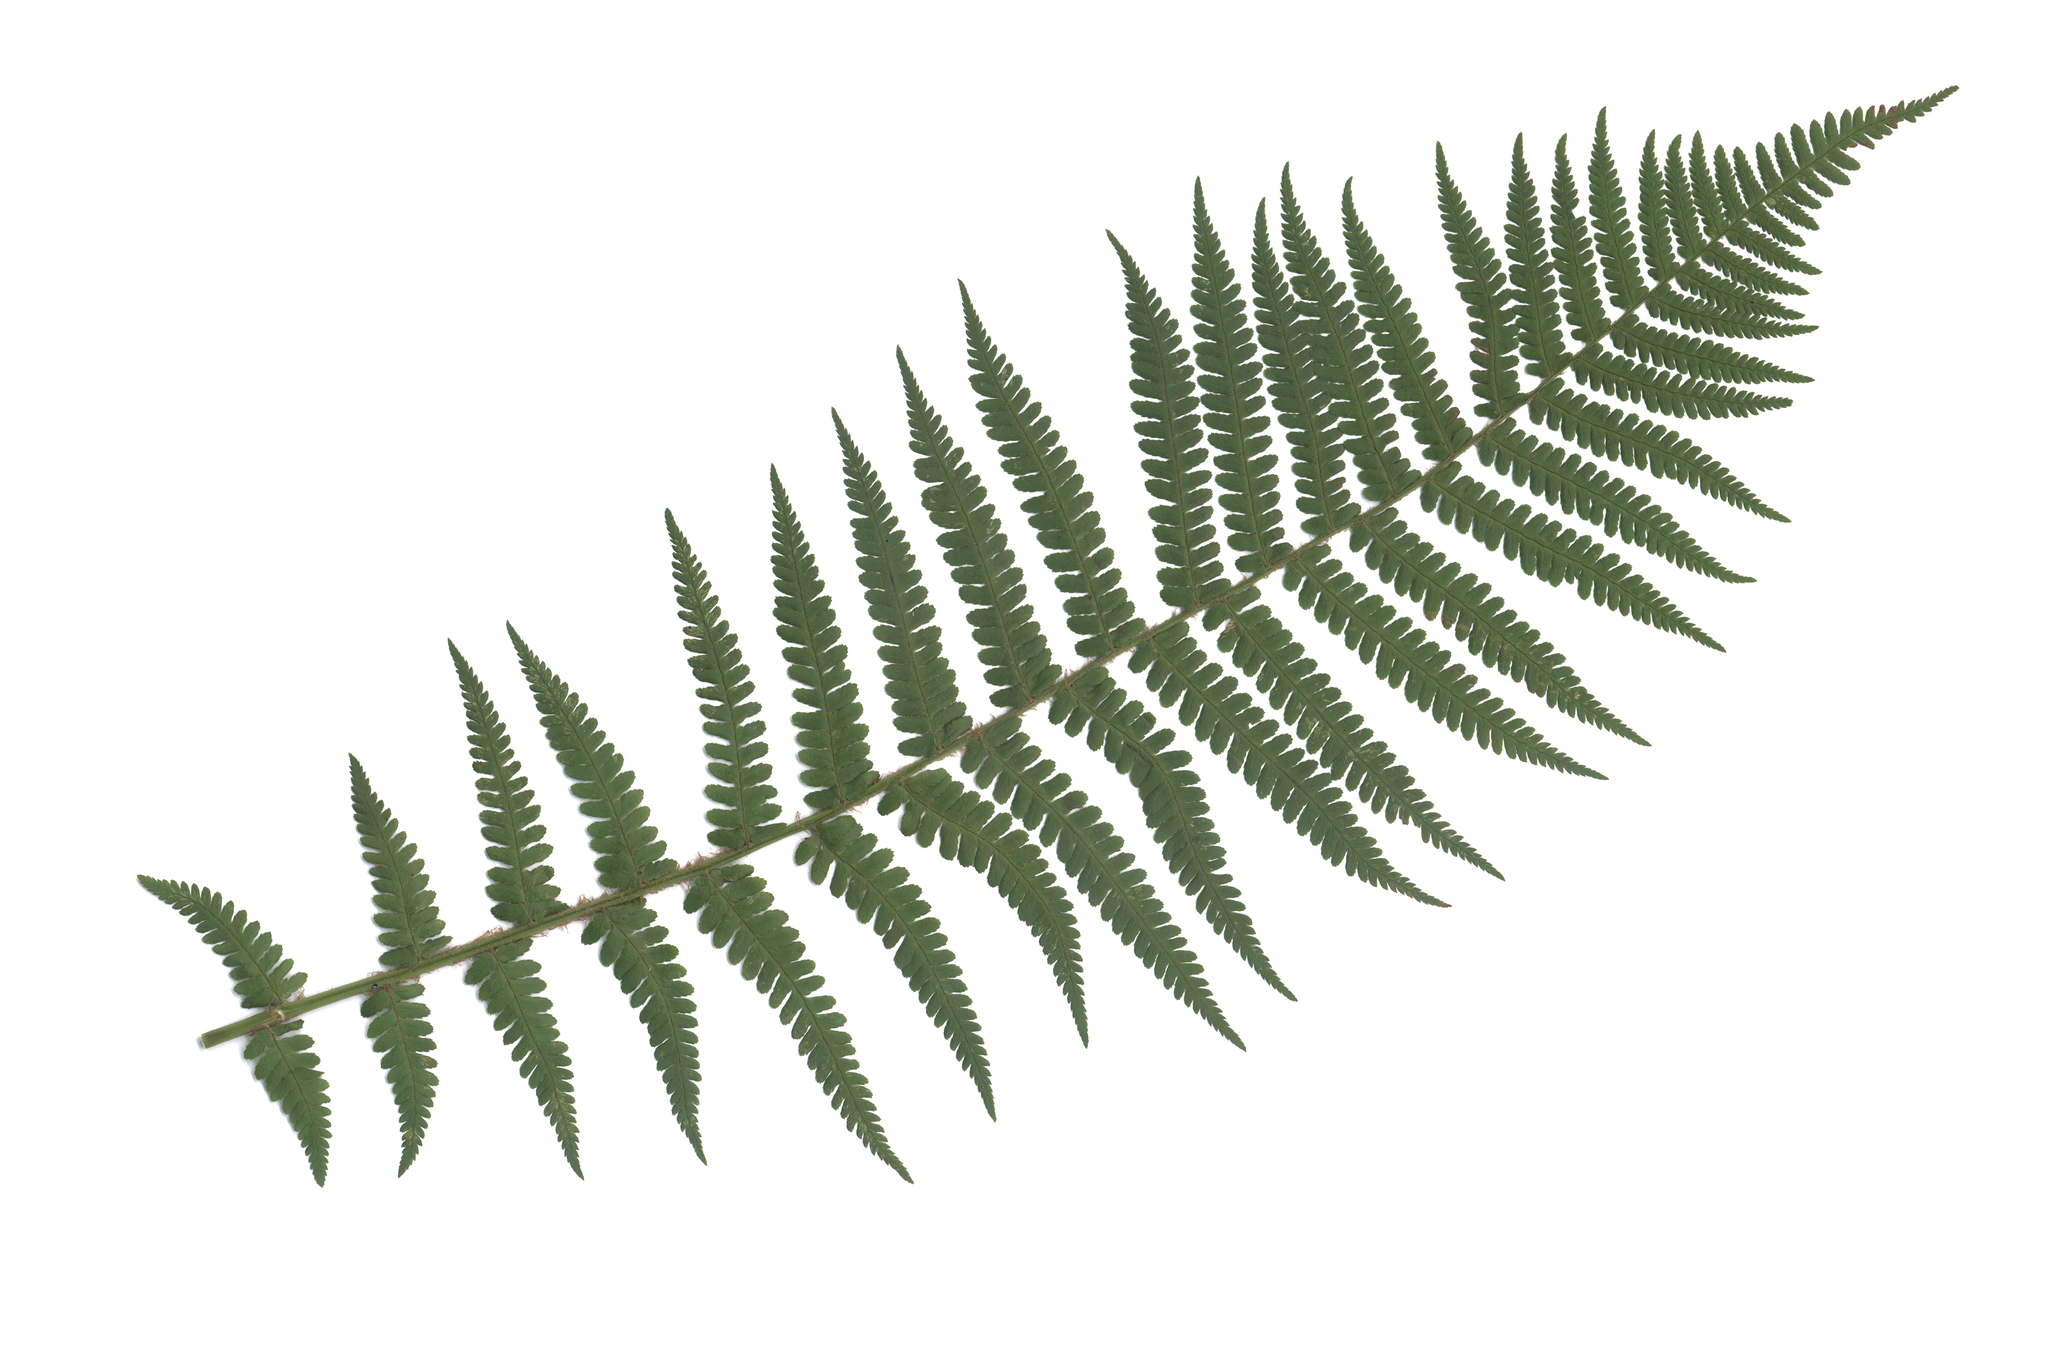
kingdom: Plantae
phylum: Tracheophyta
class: Polypodiopsida
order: Polypodiales
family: Dryopteridaceae
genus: Dryopteris
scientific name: Dryopteris filix-mas
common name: Male fern
